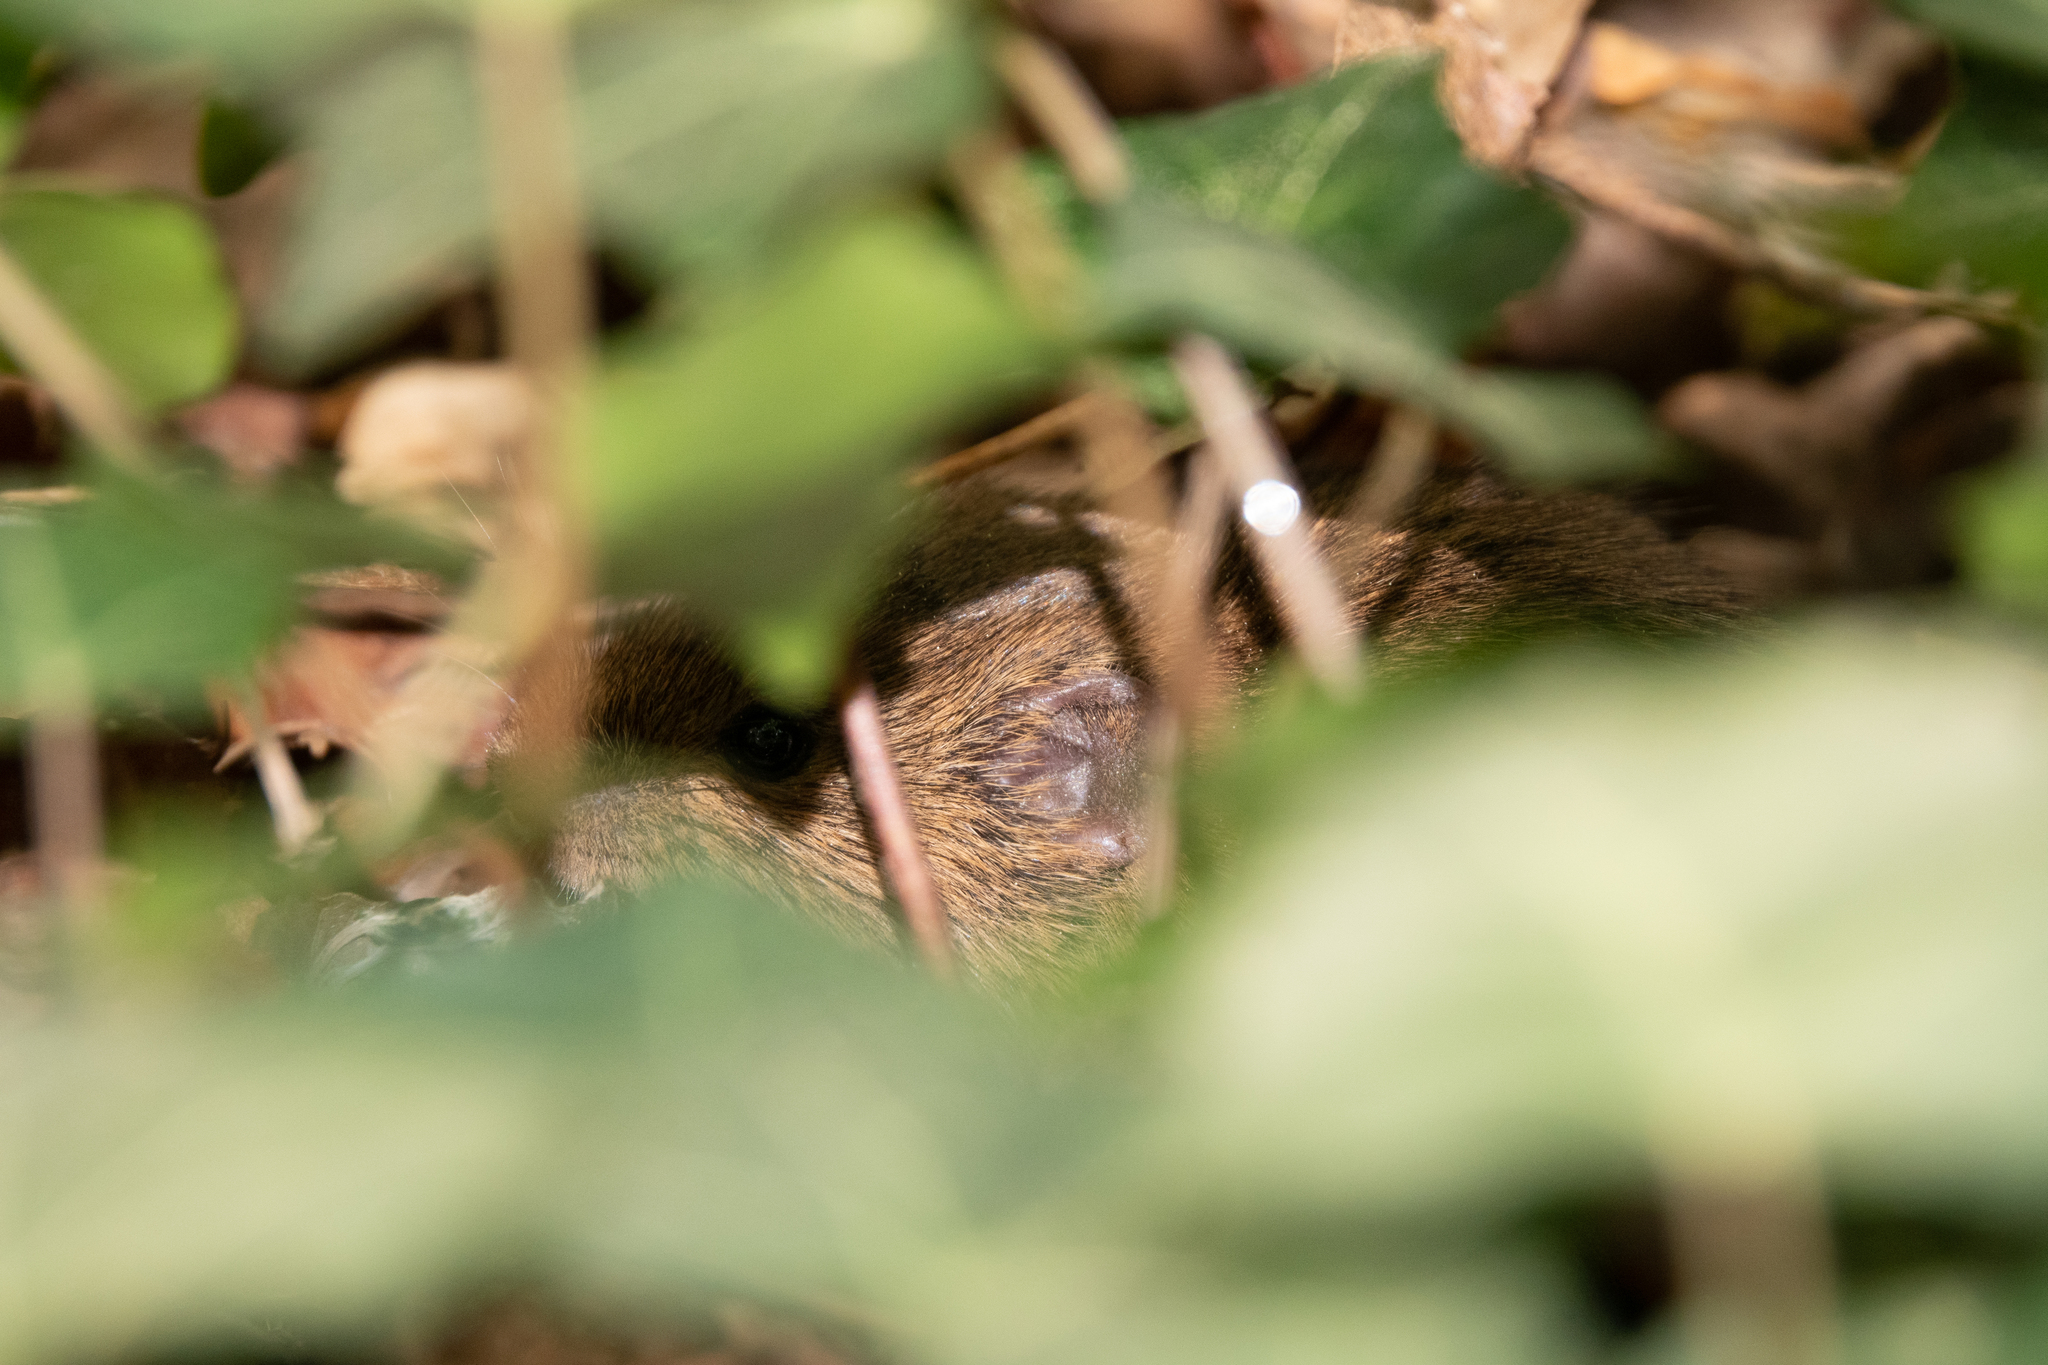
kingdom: Animalia
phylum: Chordata
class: Mammalia
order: Rodentia
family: Cricetidae
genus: Myodes
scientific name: Myodes glareolus
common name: Bank vole
